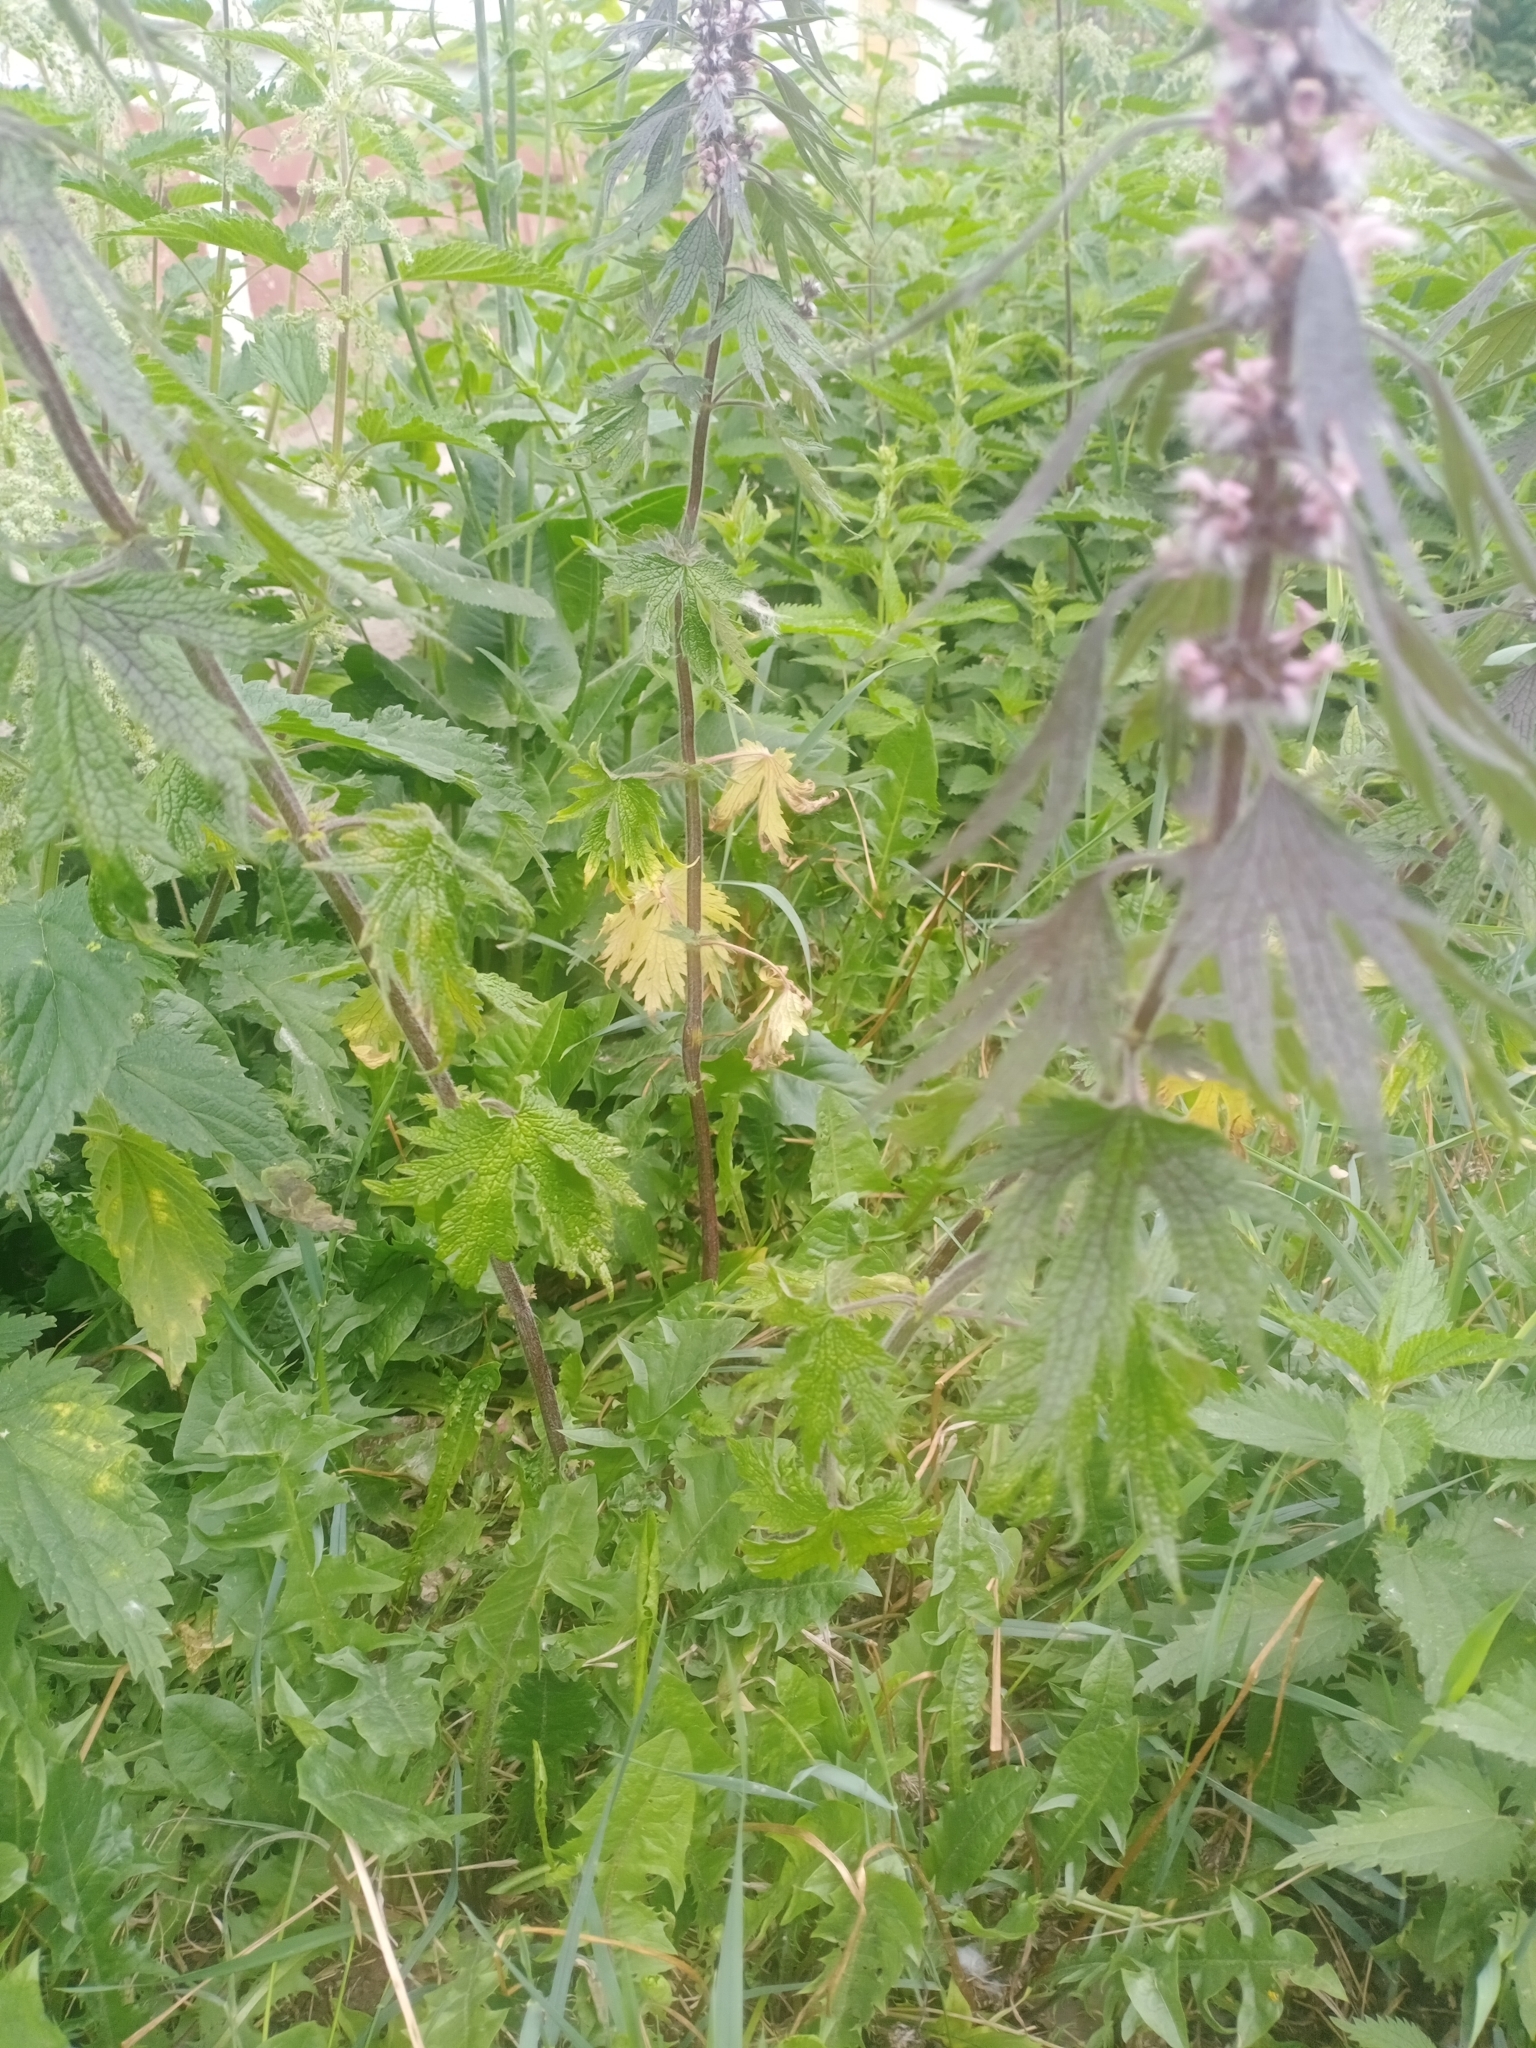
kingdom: Plantae
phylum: Tracheophyta
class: Magnoliopsida
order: Lamiales
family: Lamiaceae
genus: Leonurus
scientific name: Leonurus quinquelobatus
